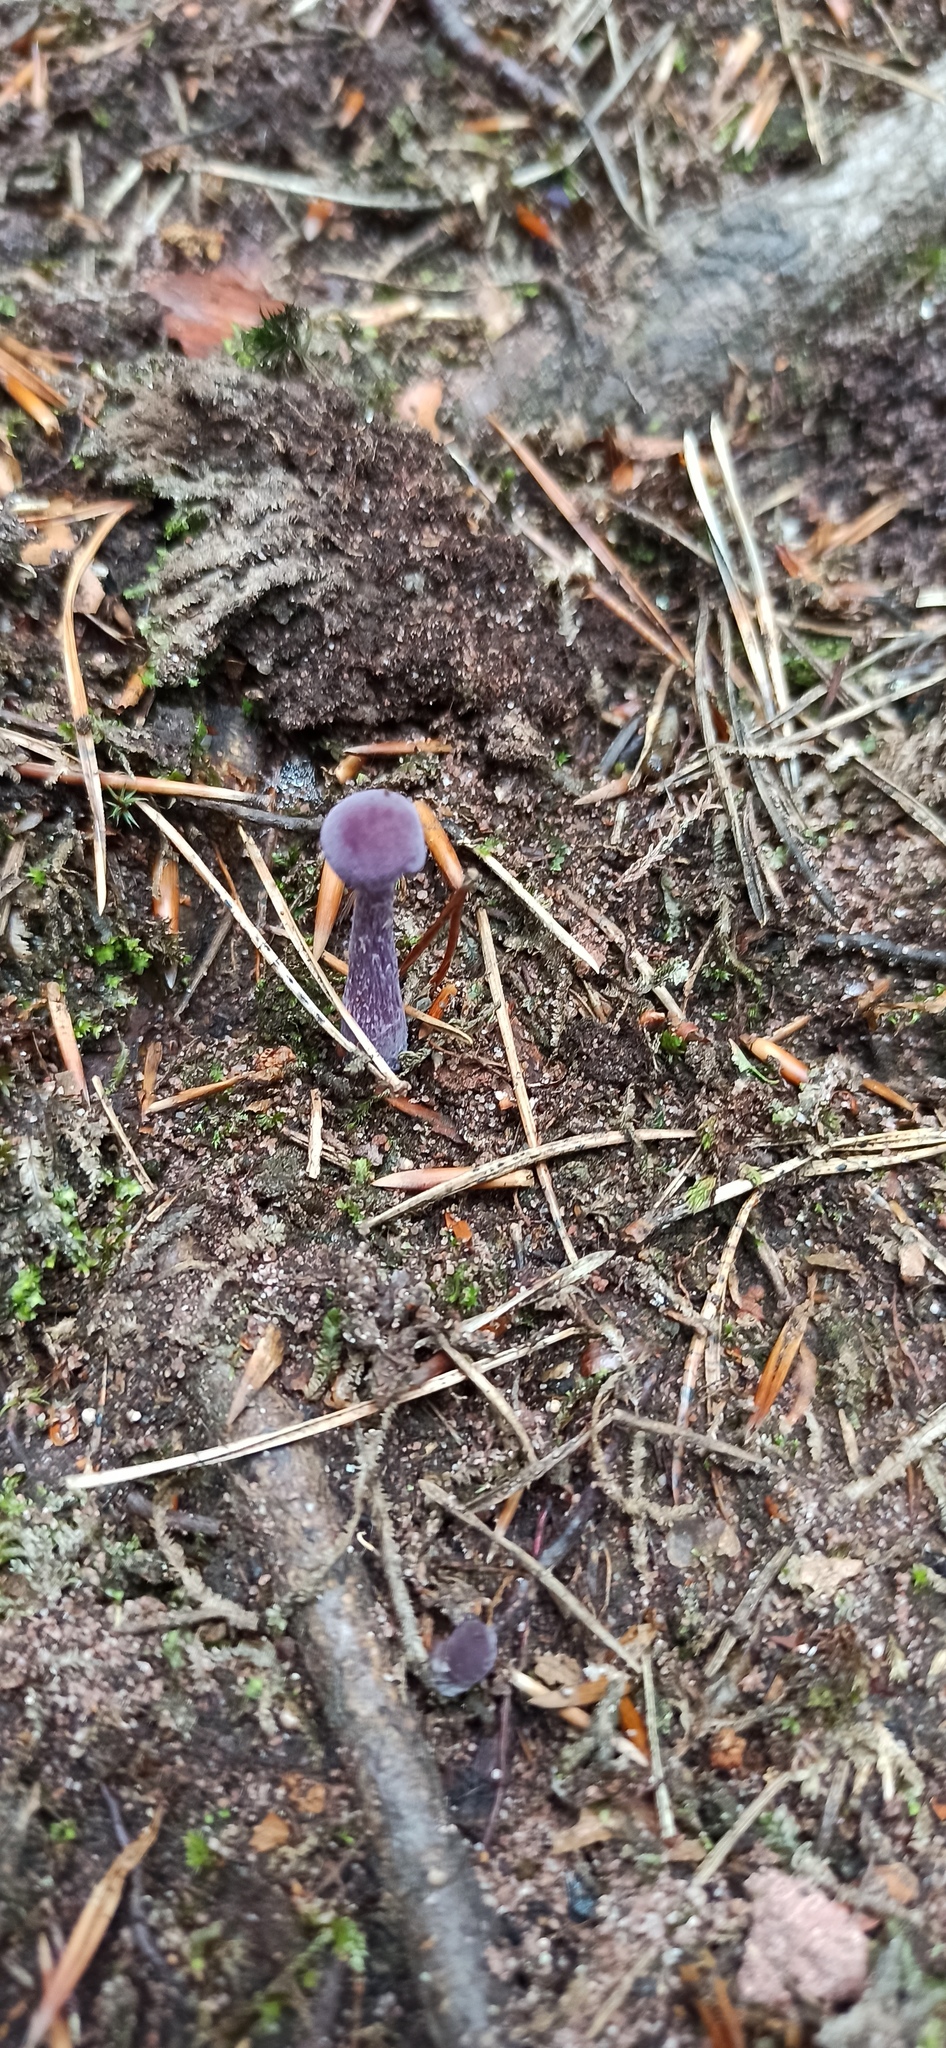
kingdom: Fungi
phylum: Basidiomycota
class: Agaricomycetes
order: Agaricales
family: Hydnangiaceae
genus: Laccaria
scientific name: Laccaria amethystina
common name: Amethyst deceiver
